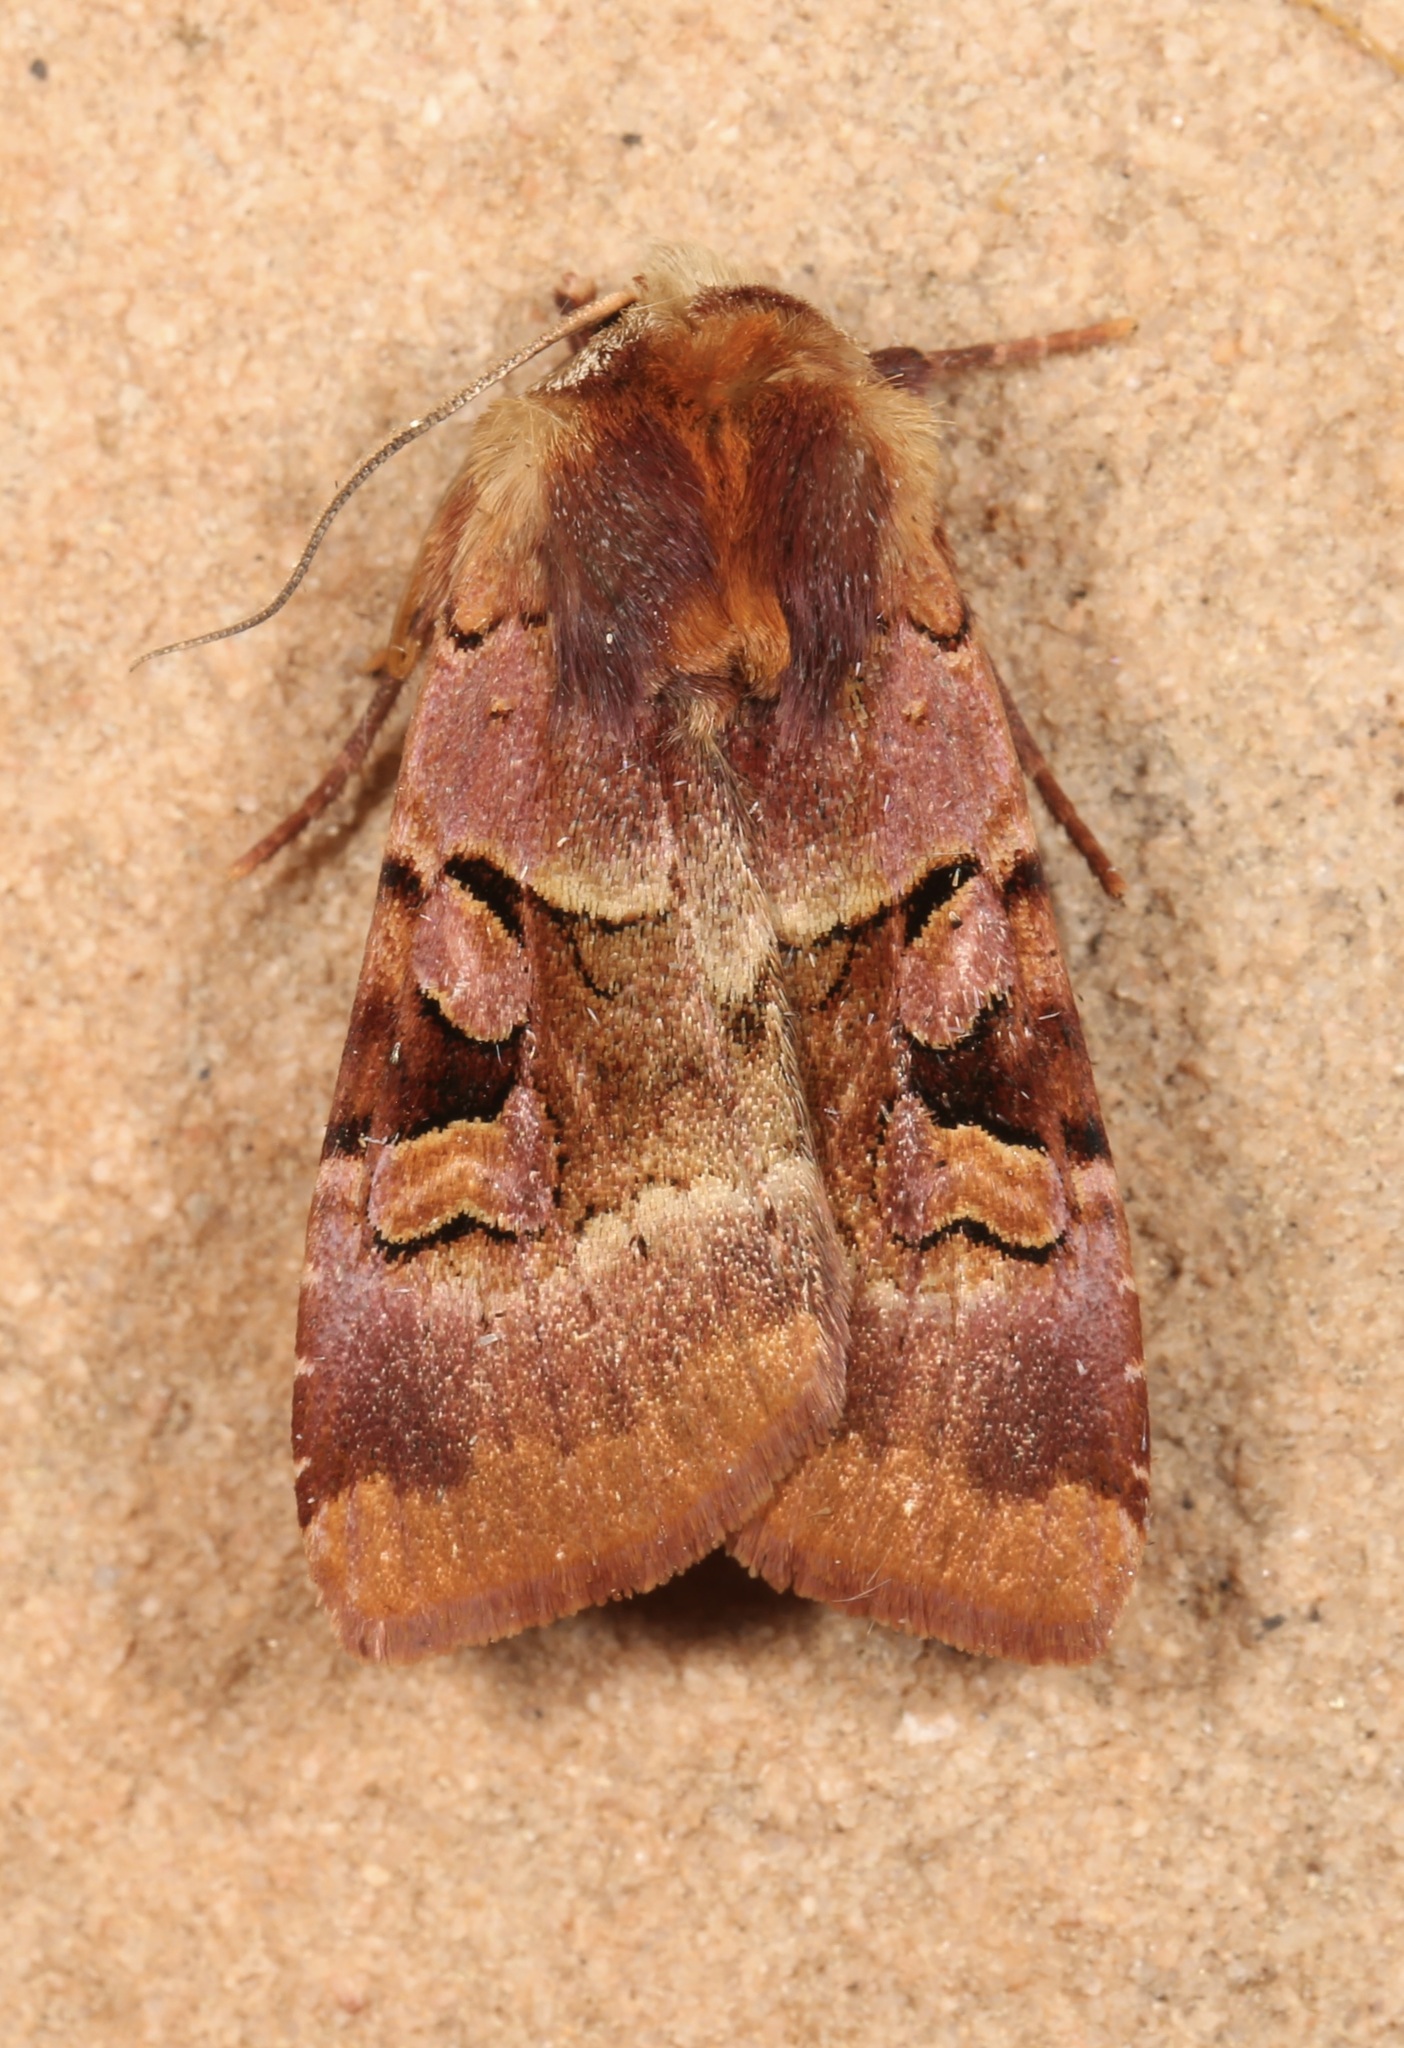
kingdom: Animalia
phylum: Arthropoda
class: Insecta
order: Lepidoptera
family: Noctuidae
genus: Xestia
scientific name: Xestia oblata
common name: Rosy dart
